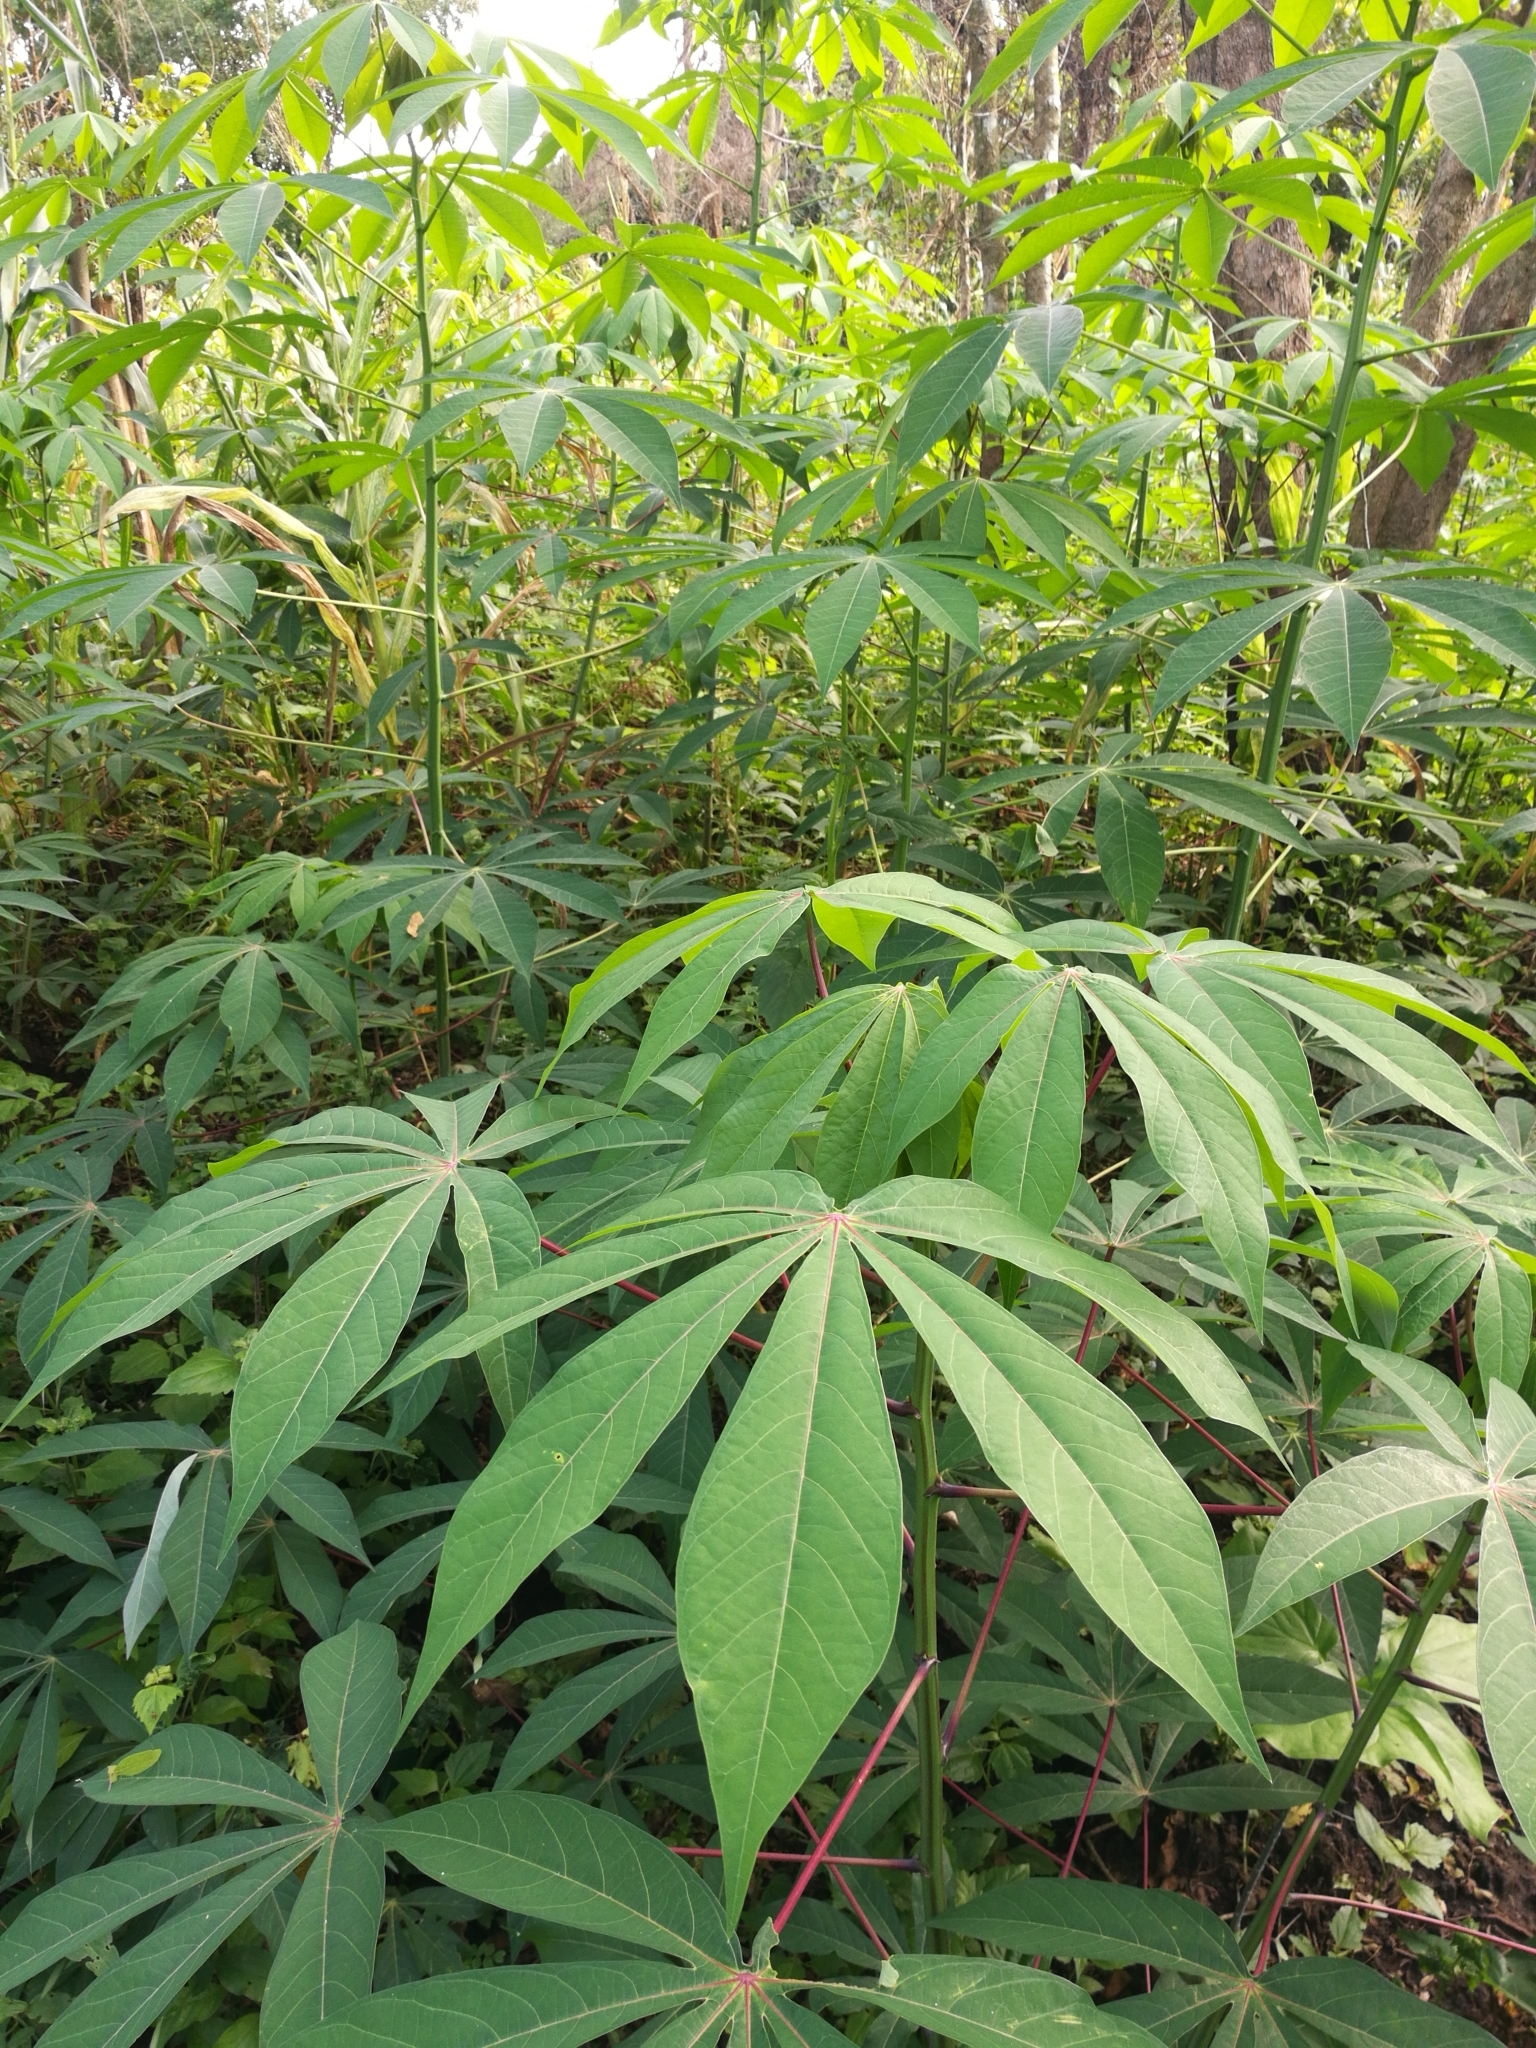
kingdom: Plantae
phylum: Tracheophyta
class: Magnoliopsida
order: Malpighiales
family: Euphorbiaceae
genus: Manihot
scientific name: Manihot esculenta
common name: Cassava
